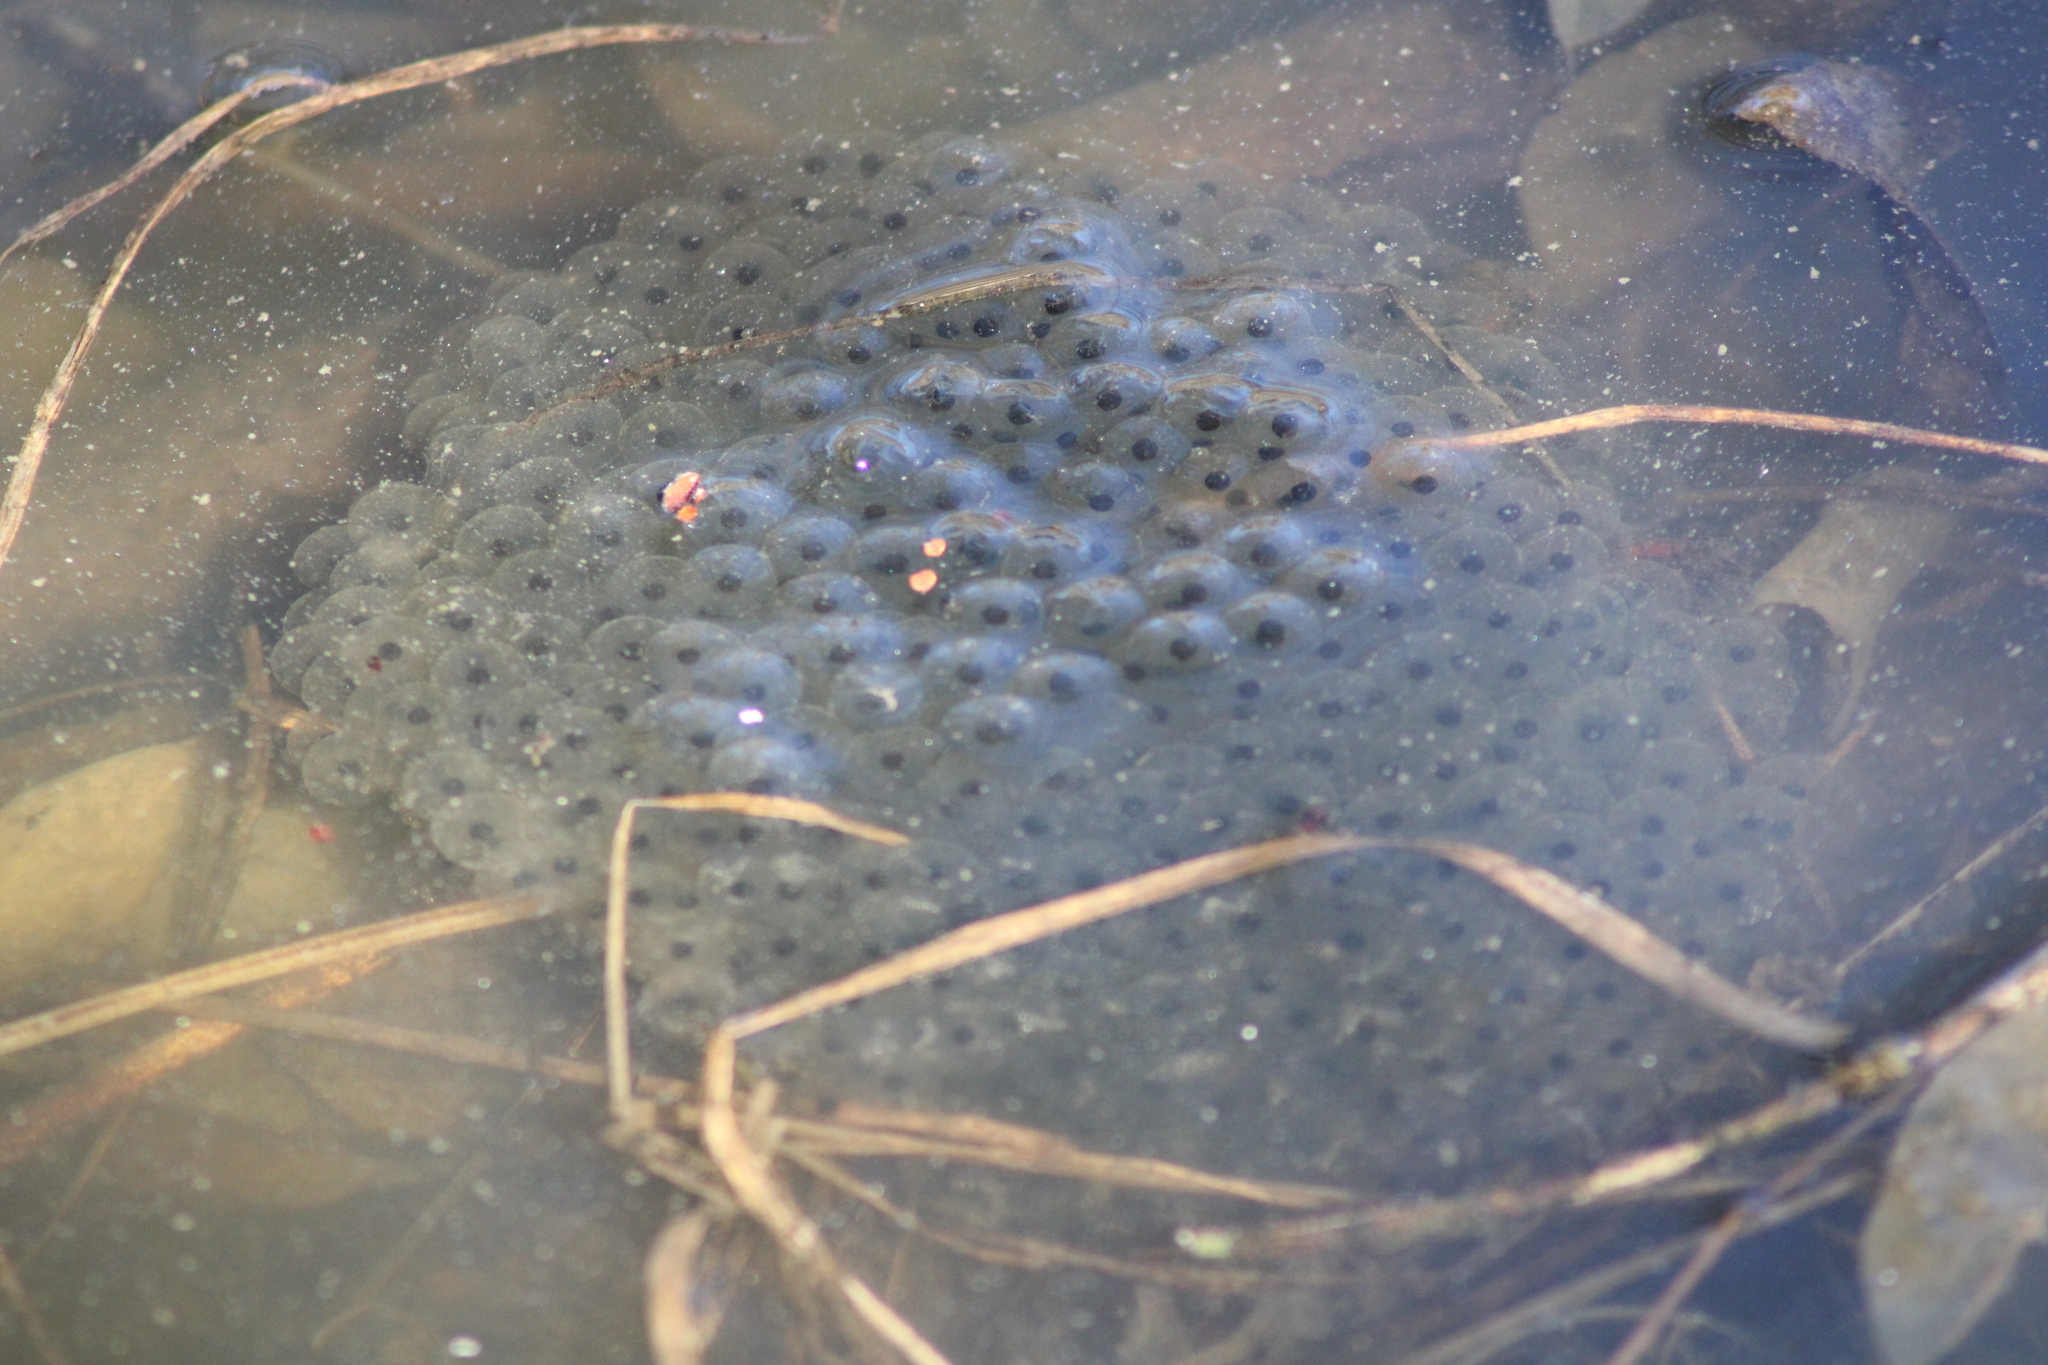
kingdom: Animalia
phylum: Chordata
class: Amphibia
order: Anura
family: Ranidae
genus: Rana
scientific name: Rana temporaria
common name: Common frog
